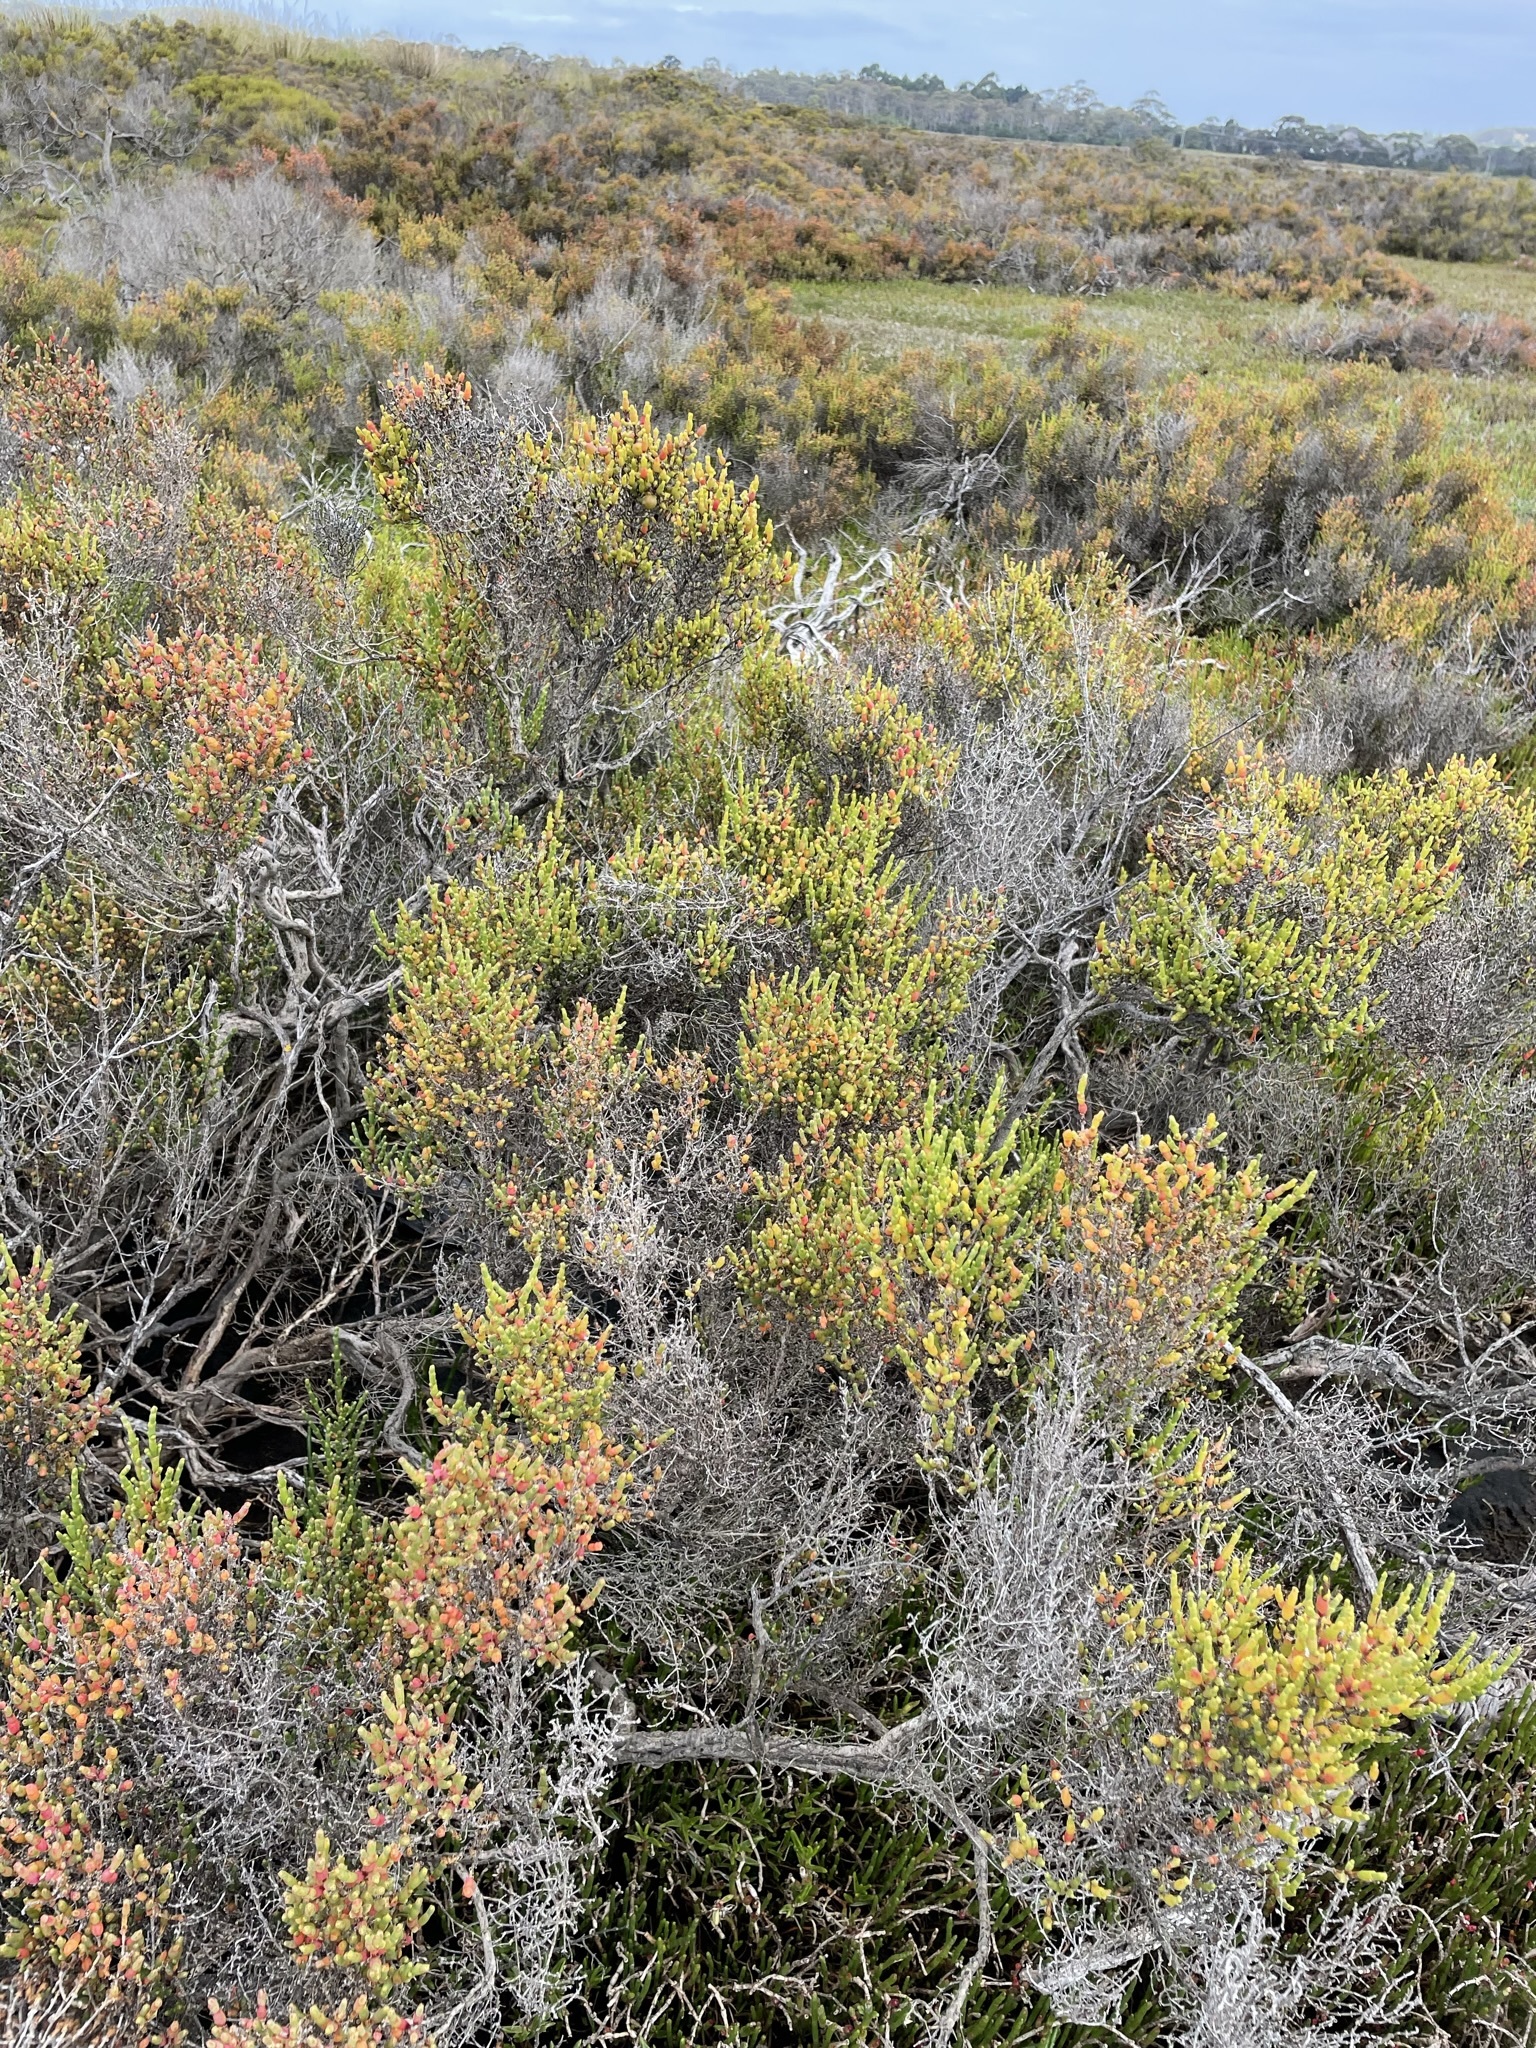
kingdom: Plantae
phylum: Tracheophyta
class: Magnoliopsida
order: Caryophyllales
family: Amaranthaceae
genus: Tecticornia
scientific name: Tecticornia arbuscula
